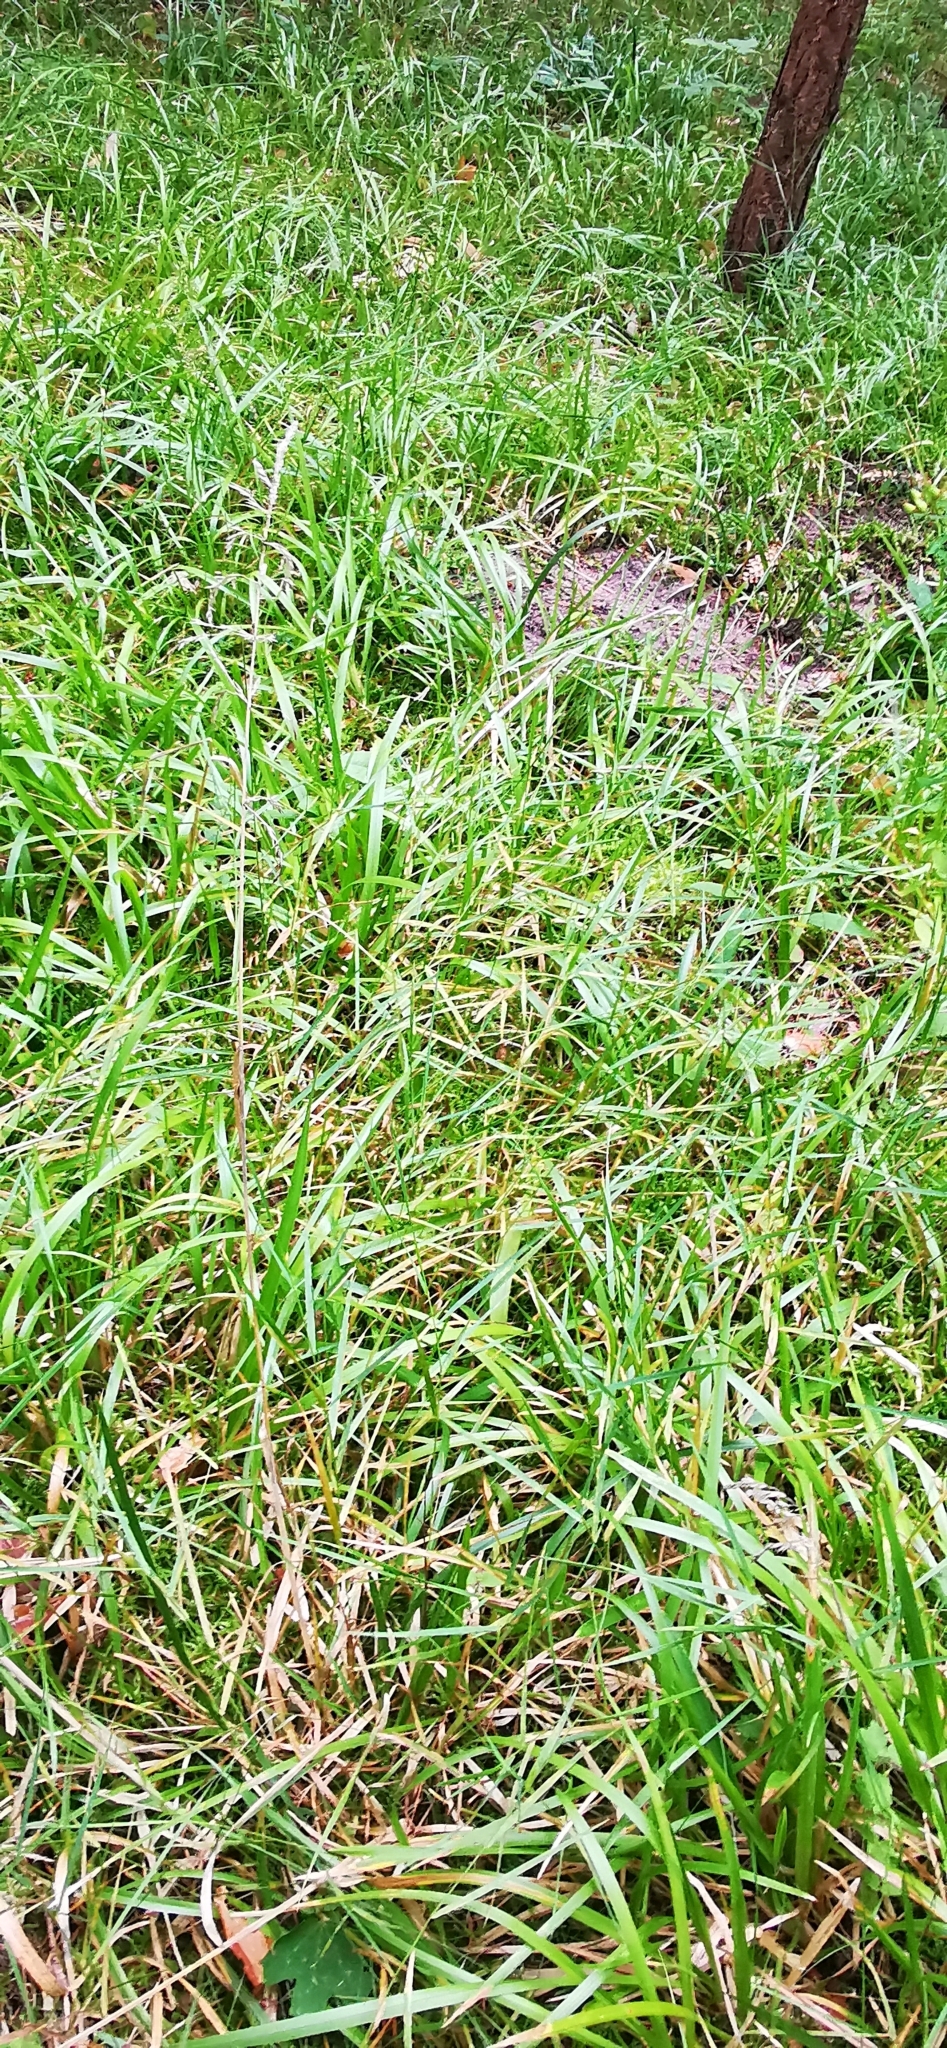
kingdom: Plantae
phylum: Tracheophyta
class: Liliopsida
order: Poales
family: Poaceae
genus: Poa
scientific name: Poa chaixii
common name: Broad-leaved meadow-grass
